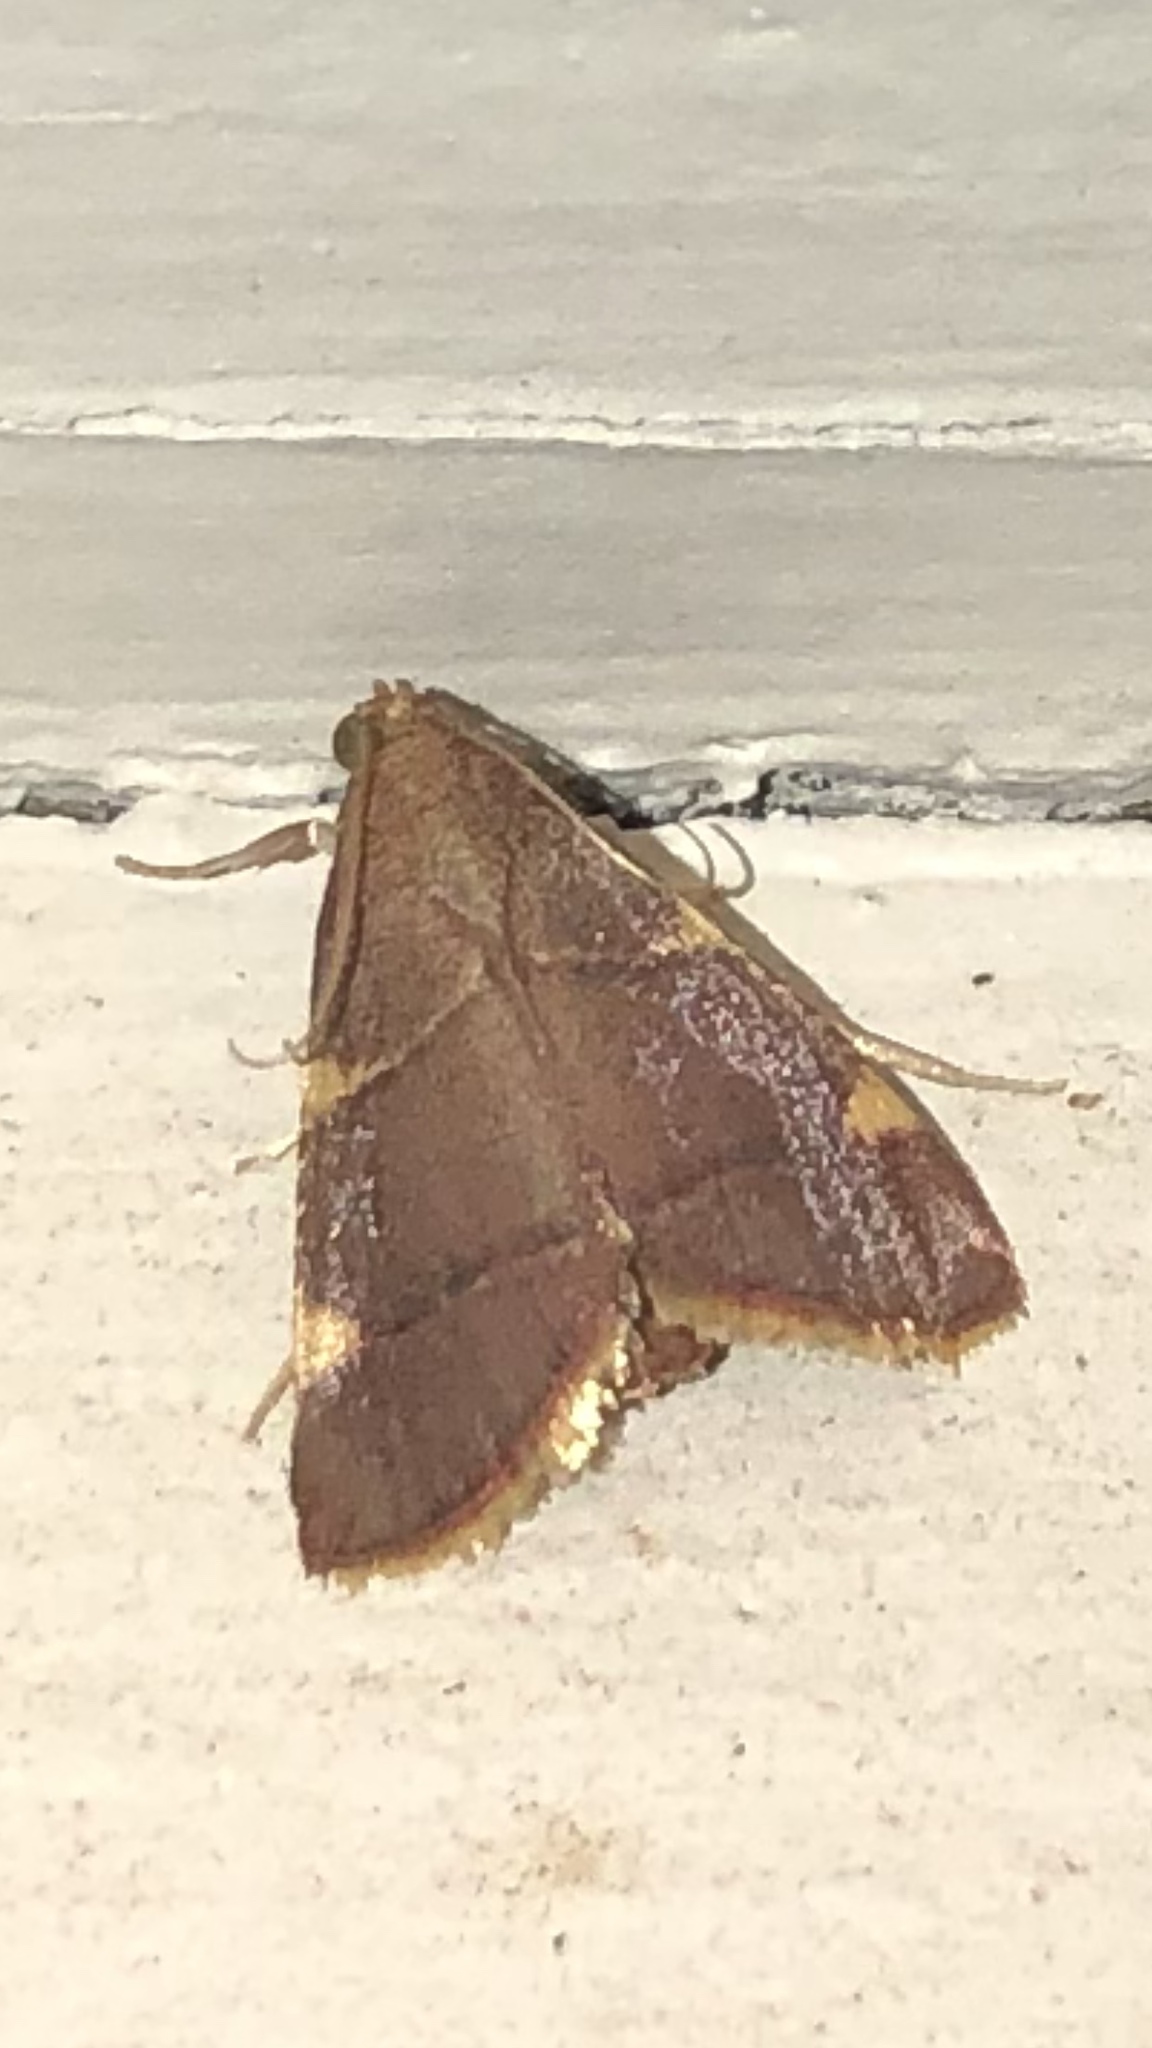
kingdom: Animalia
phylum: Arthropoda
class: Insecta
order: Lepidoptera
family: Pyralidae
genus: Hypsopygia
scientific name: Hypsopygia olinalis
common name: Yellow-fringed dolichomia moth
